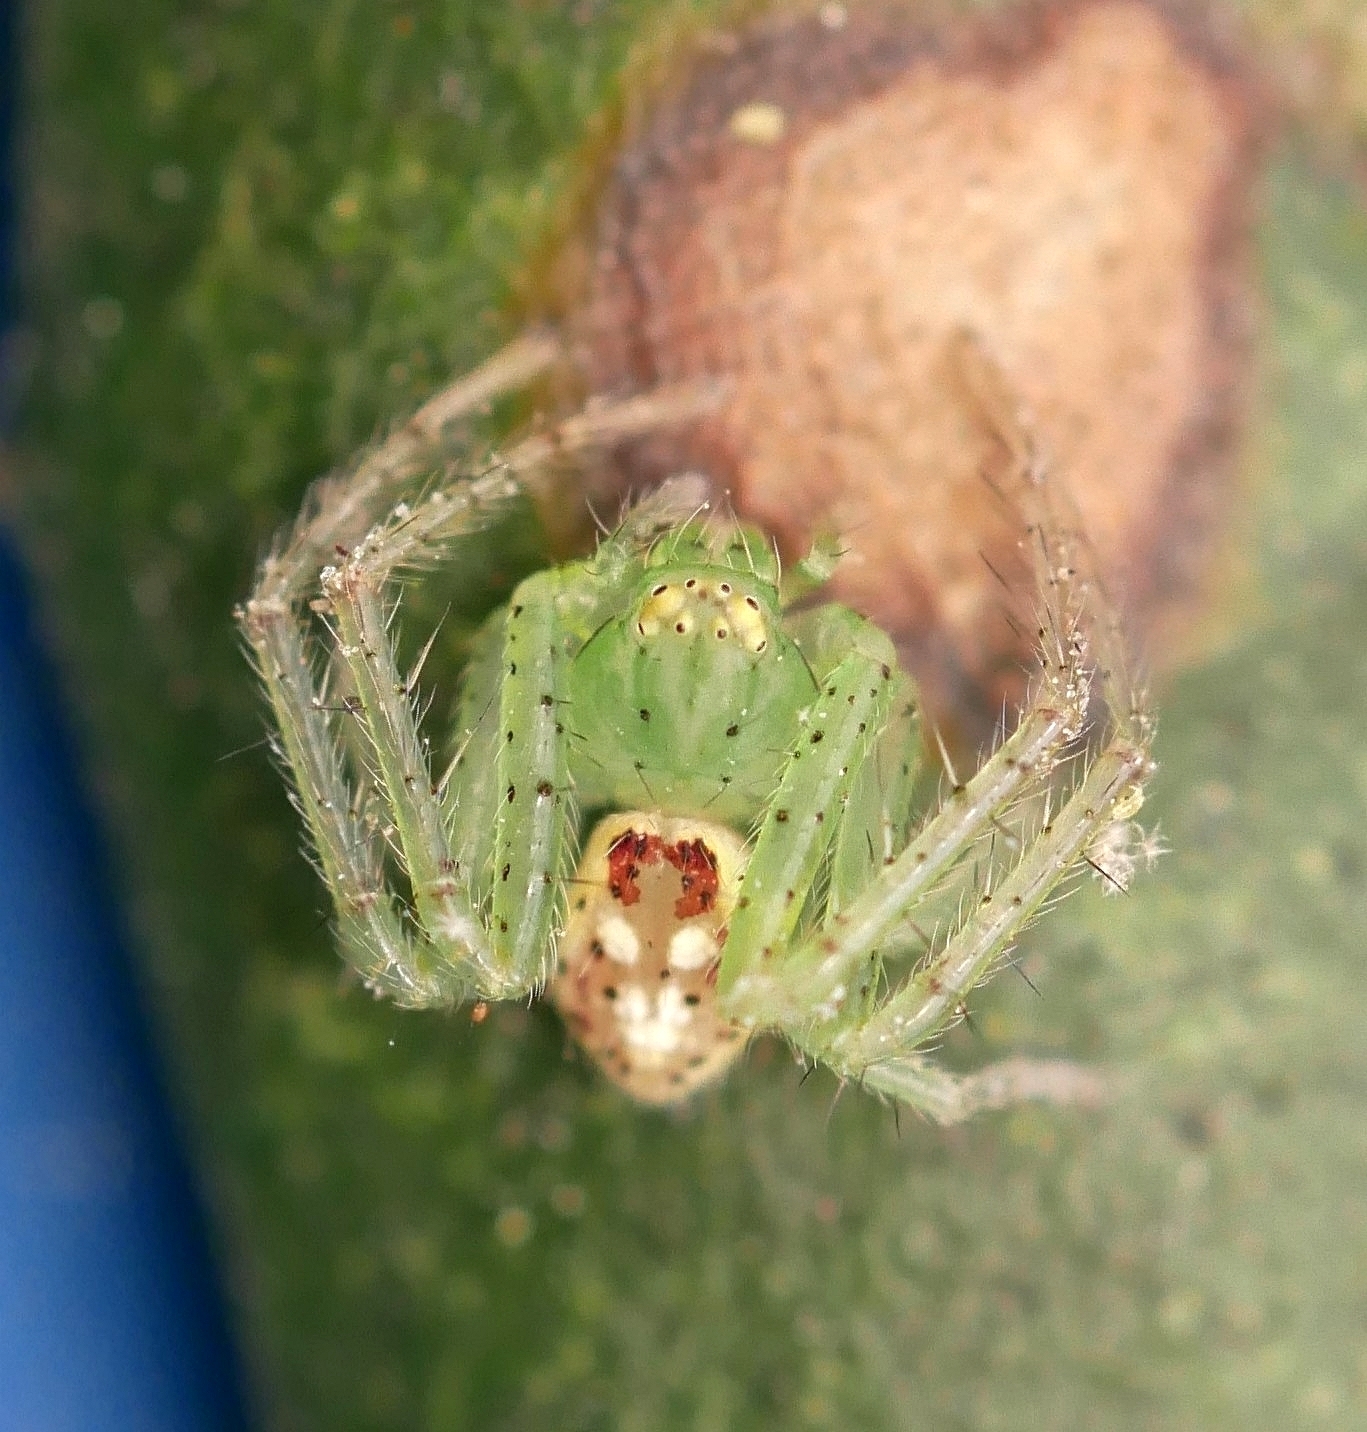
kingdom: Animalia
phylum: Arthropoda
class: Arachnida
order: Araneae
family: Thomisidae
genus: Diaea
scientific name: Diaea livens
